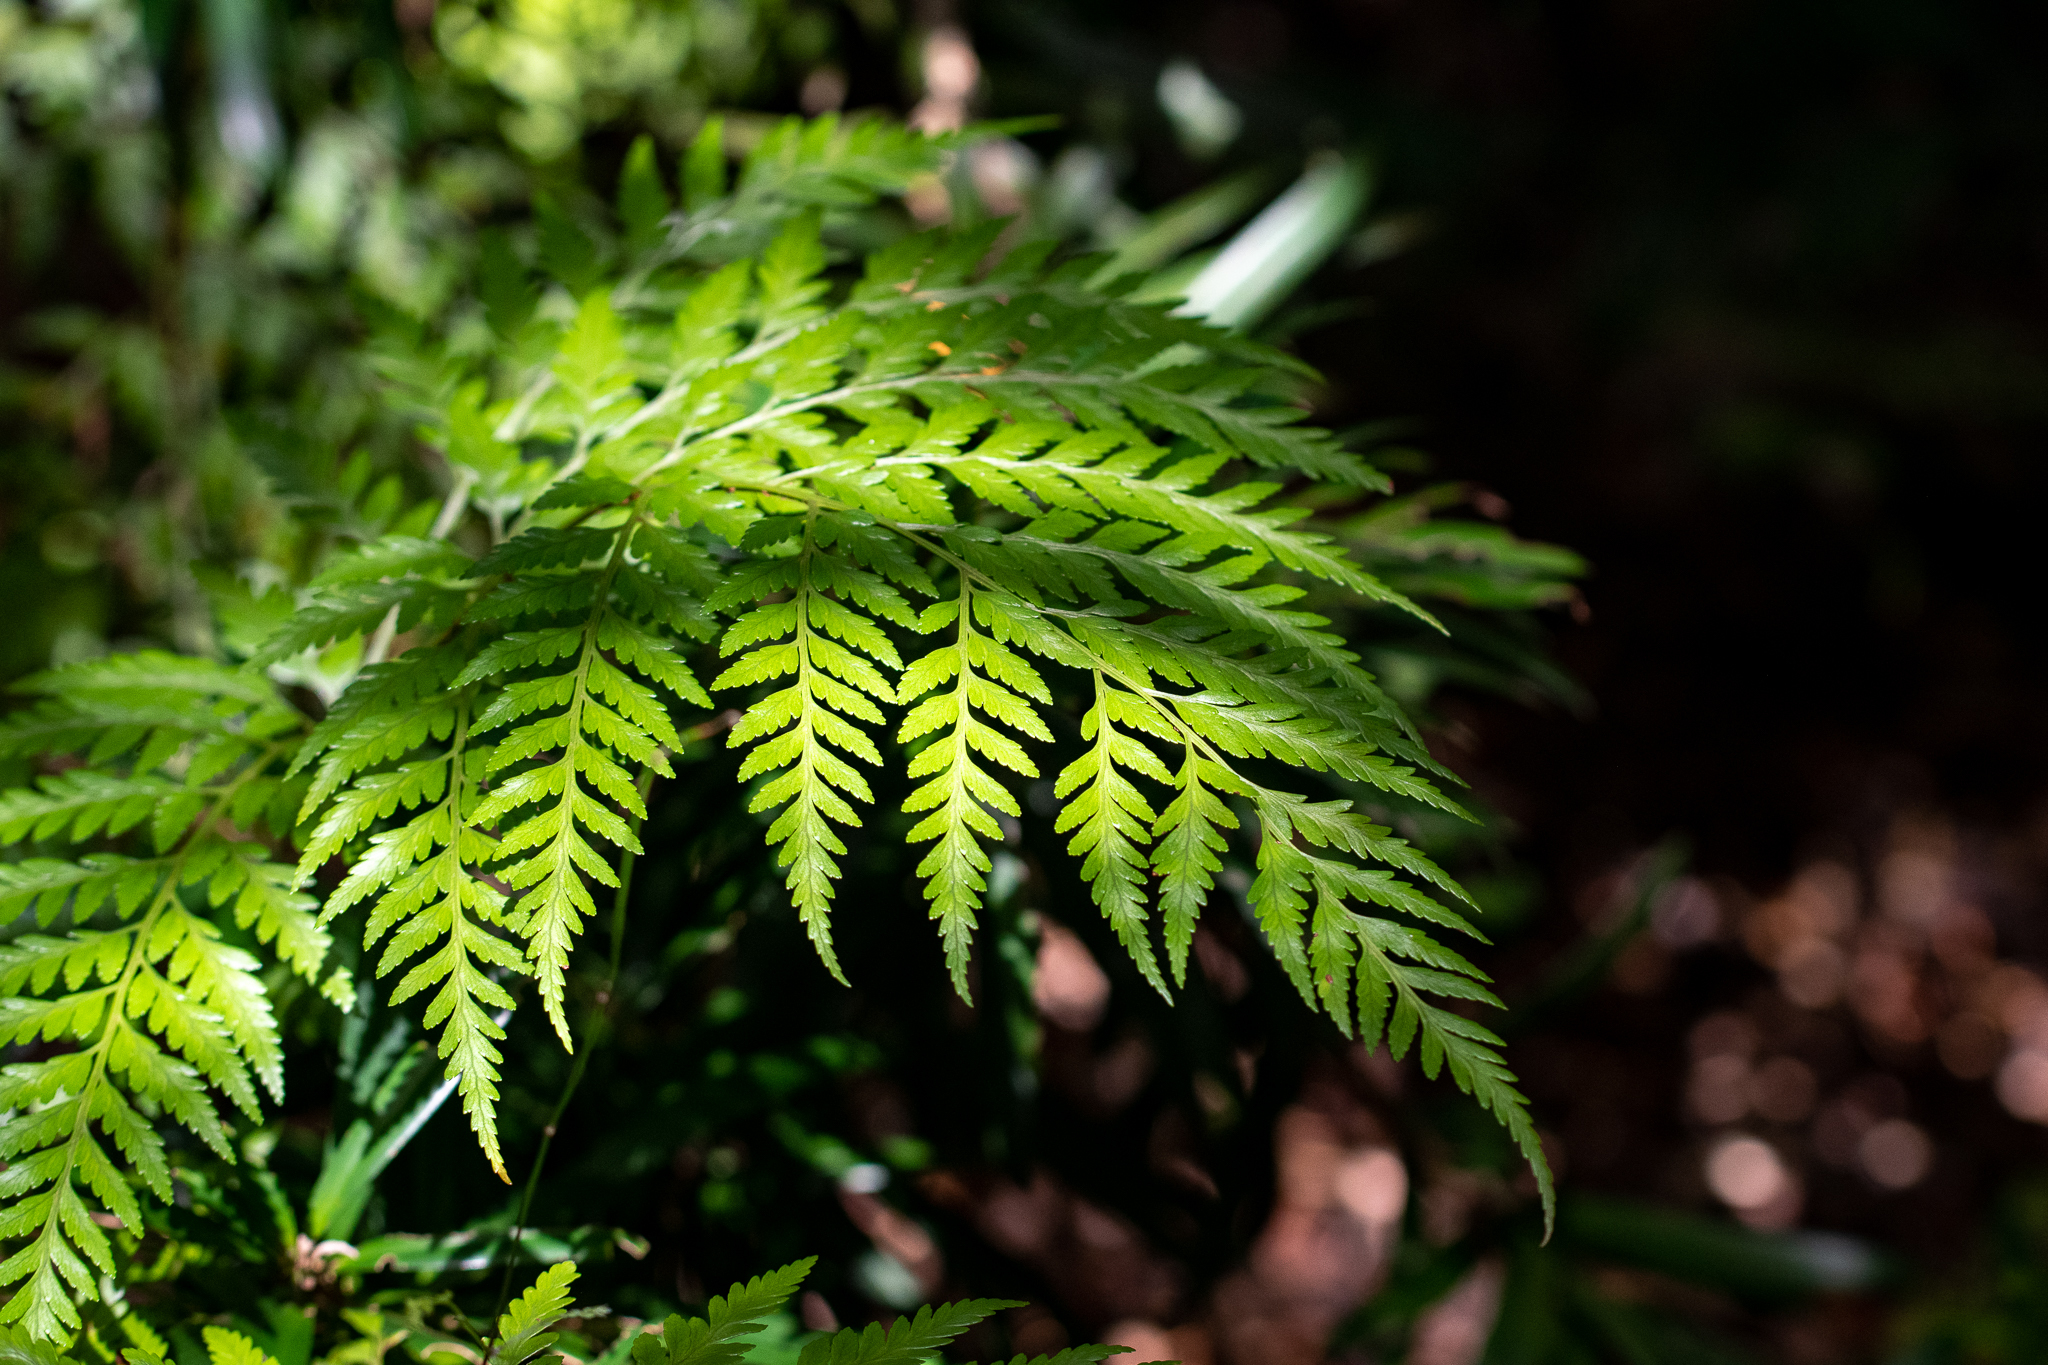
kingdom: Plantae
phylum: Tracheophyta
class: Polypodiopsida
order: Polypodiales
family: Dryopteridaceae
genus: Rumohra
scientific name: Rumohra adiantiformis
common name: Leather fern
